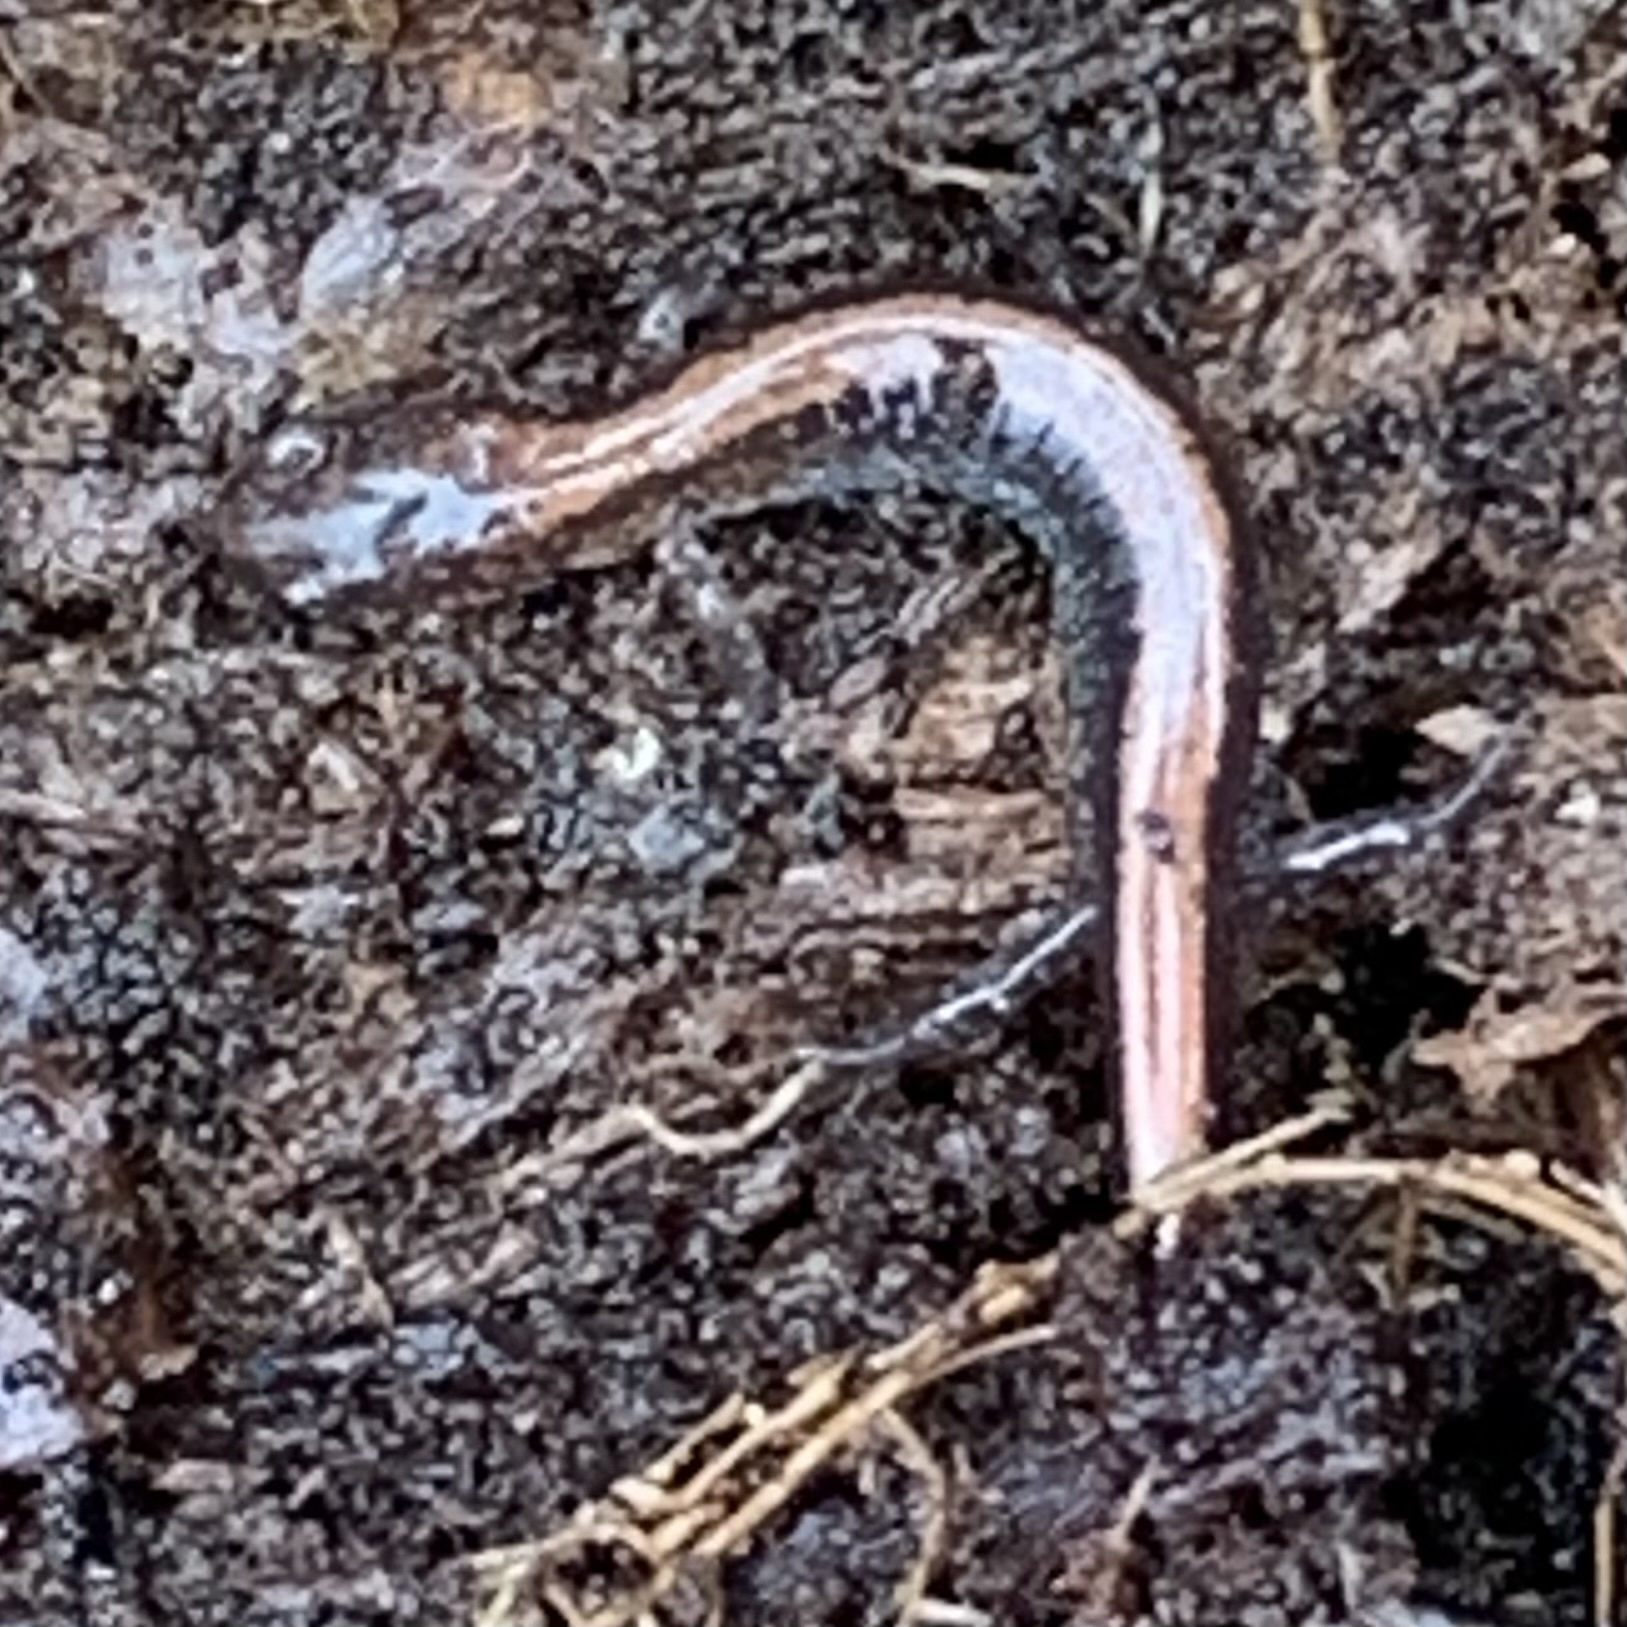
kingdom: Animalia
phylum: Chordata
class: Amphibia
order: Caudata
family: Plethodontidae
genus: Plethodon
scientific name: Plethodon cinereus
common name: Redback salamander
